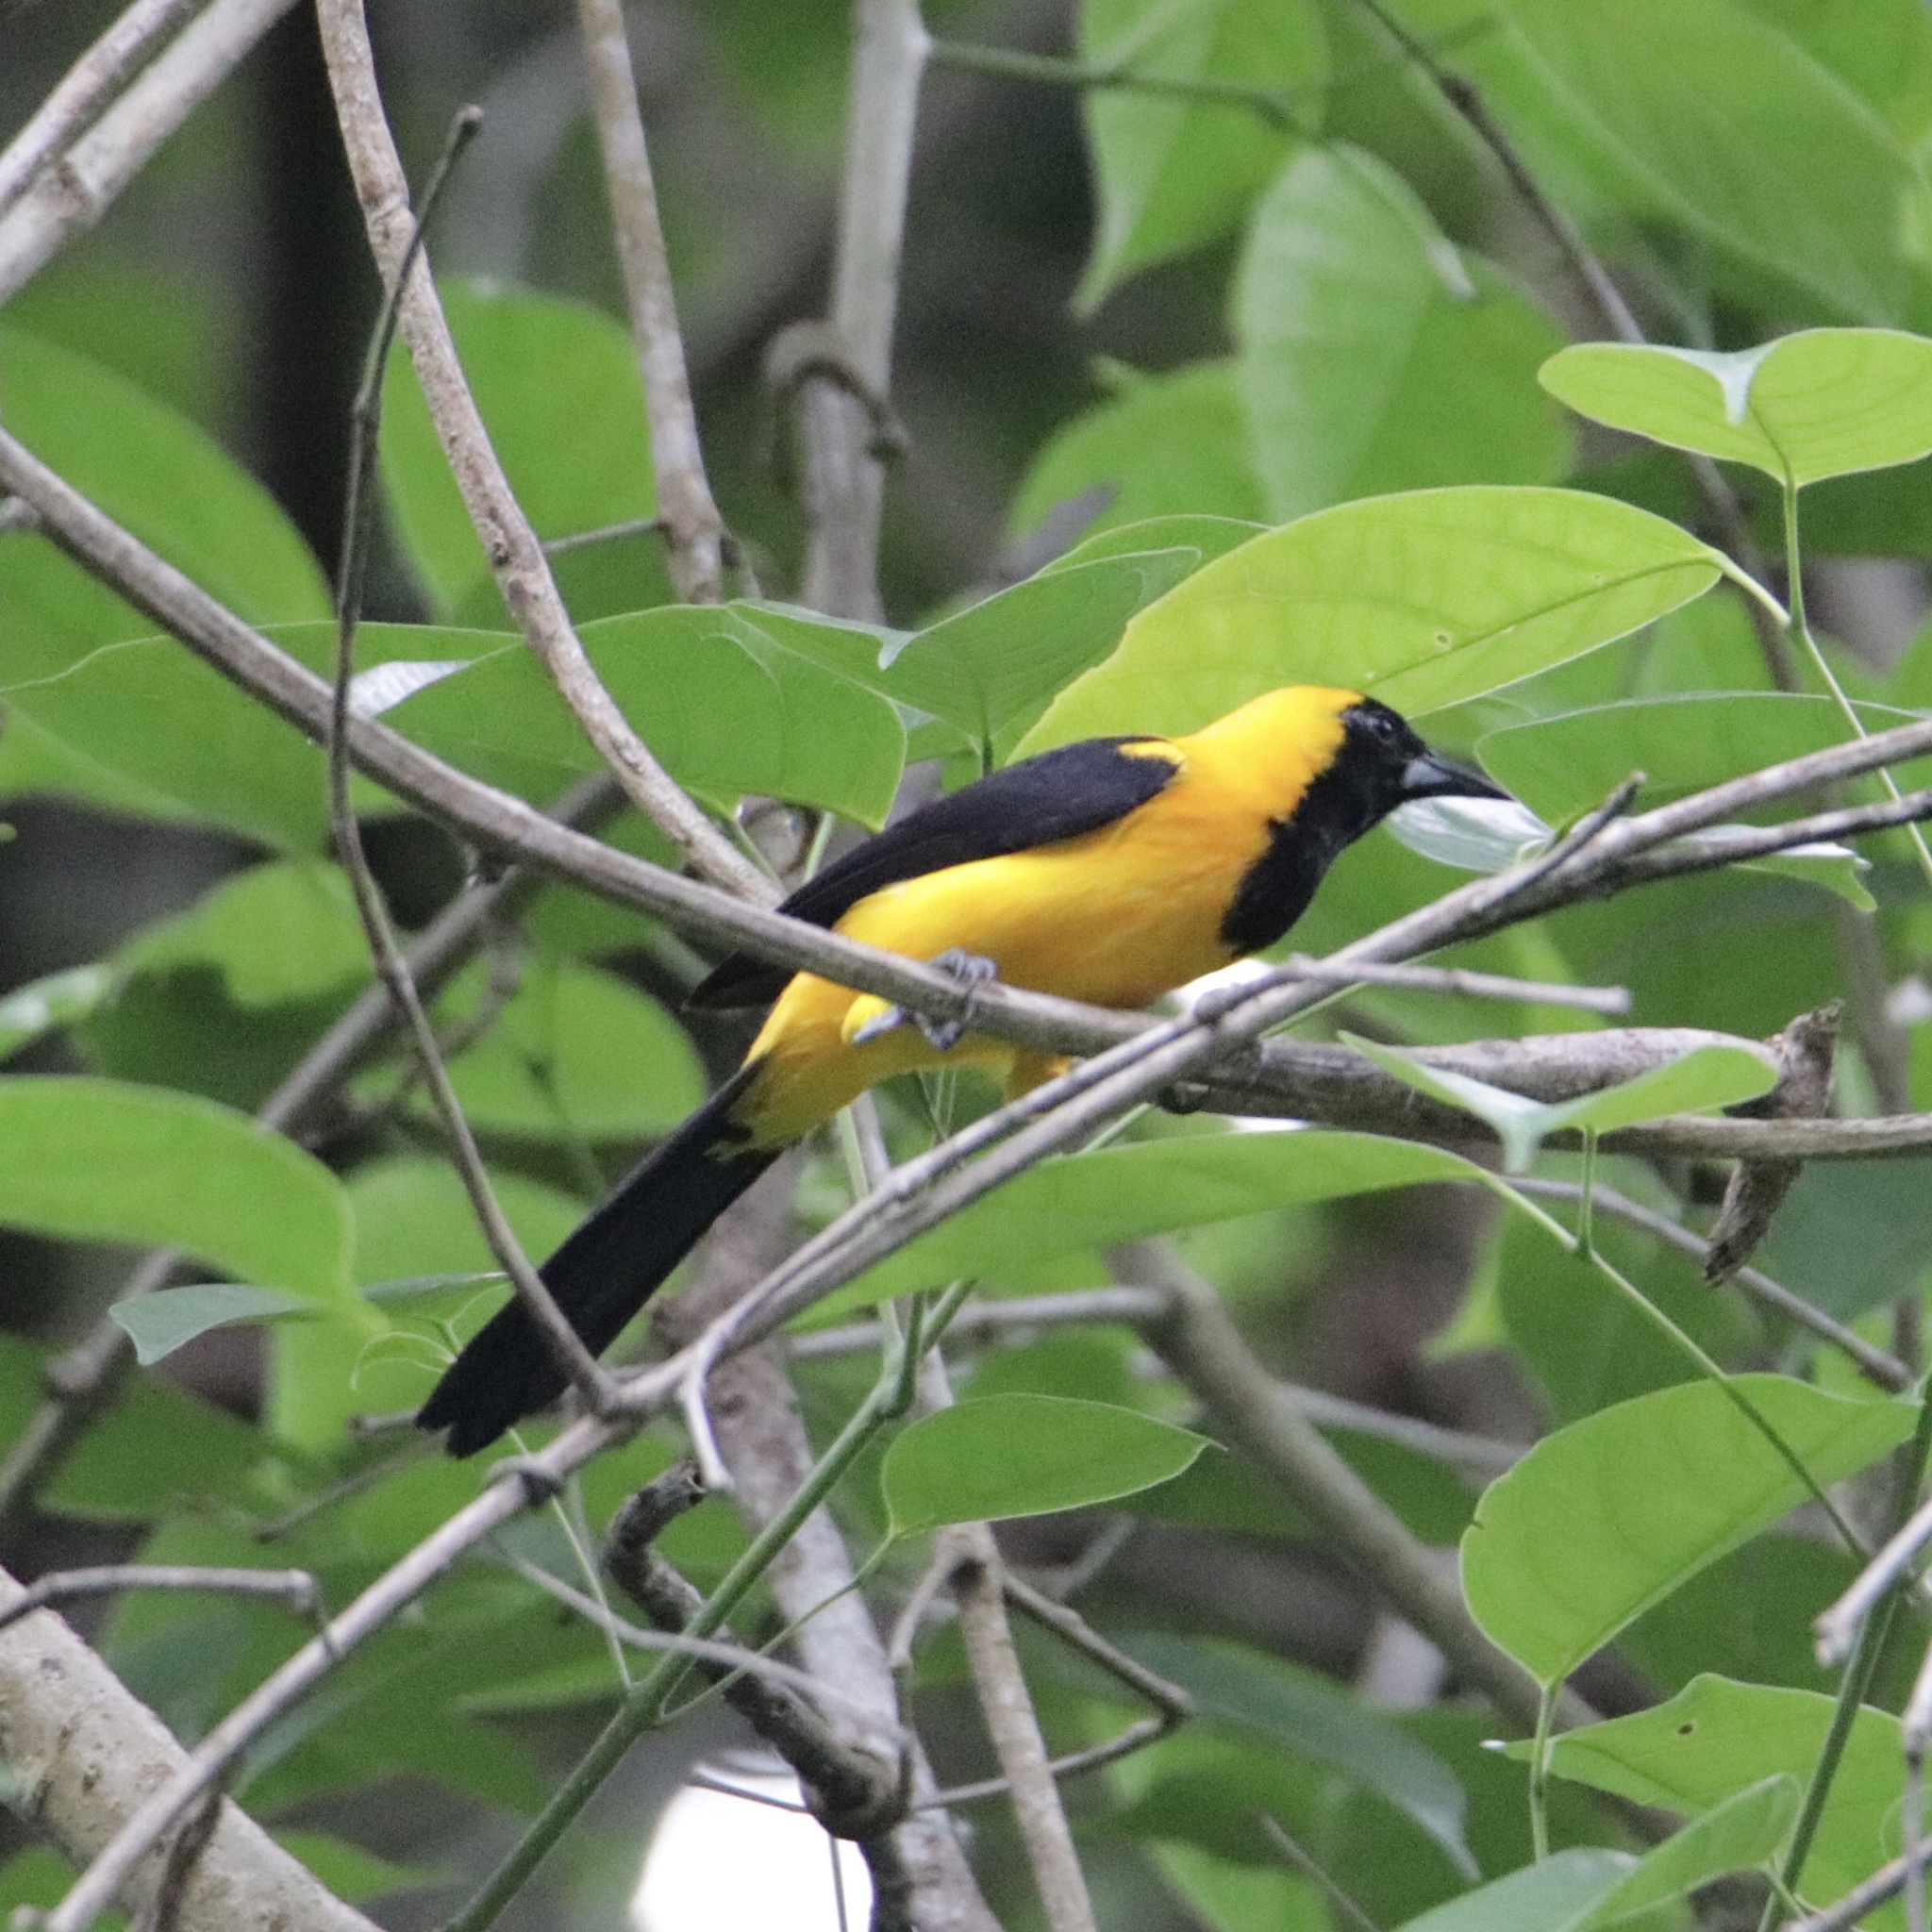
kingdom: Animalia
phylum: Chordata
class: Aves
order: Passeriformes
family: Icteridae
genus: Icterus
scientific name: Icterus chrysater
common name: Yellow-backed oriole
